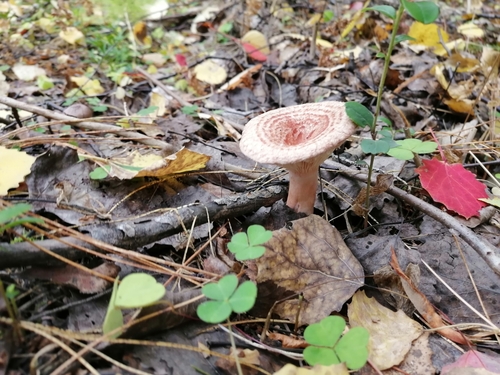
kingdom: Fungi
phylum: Basidiomycota
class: Agaricomycetes
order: Russulales
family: Russulaceae
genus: Lactarius
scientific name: Lactarius
